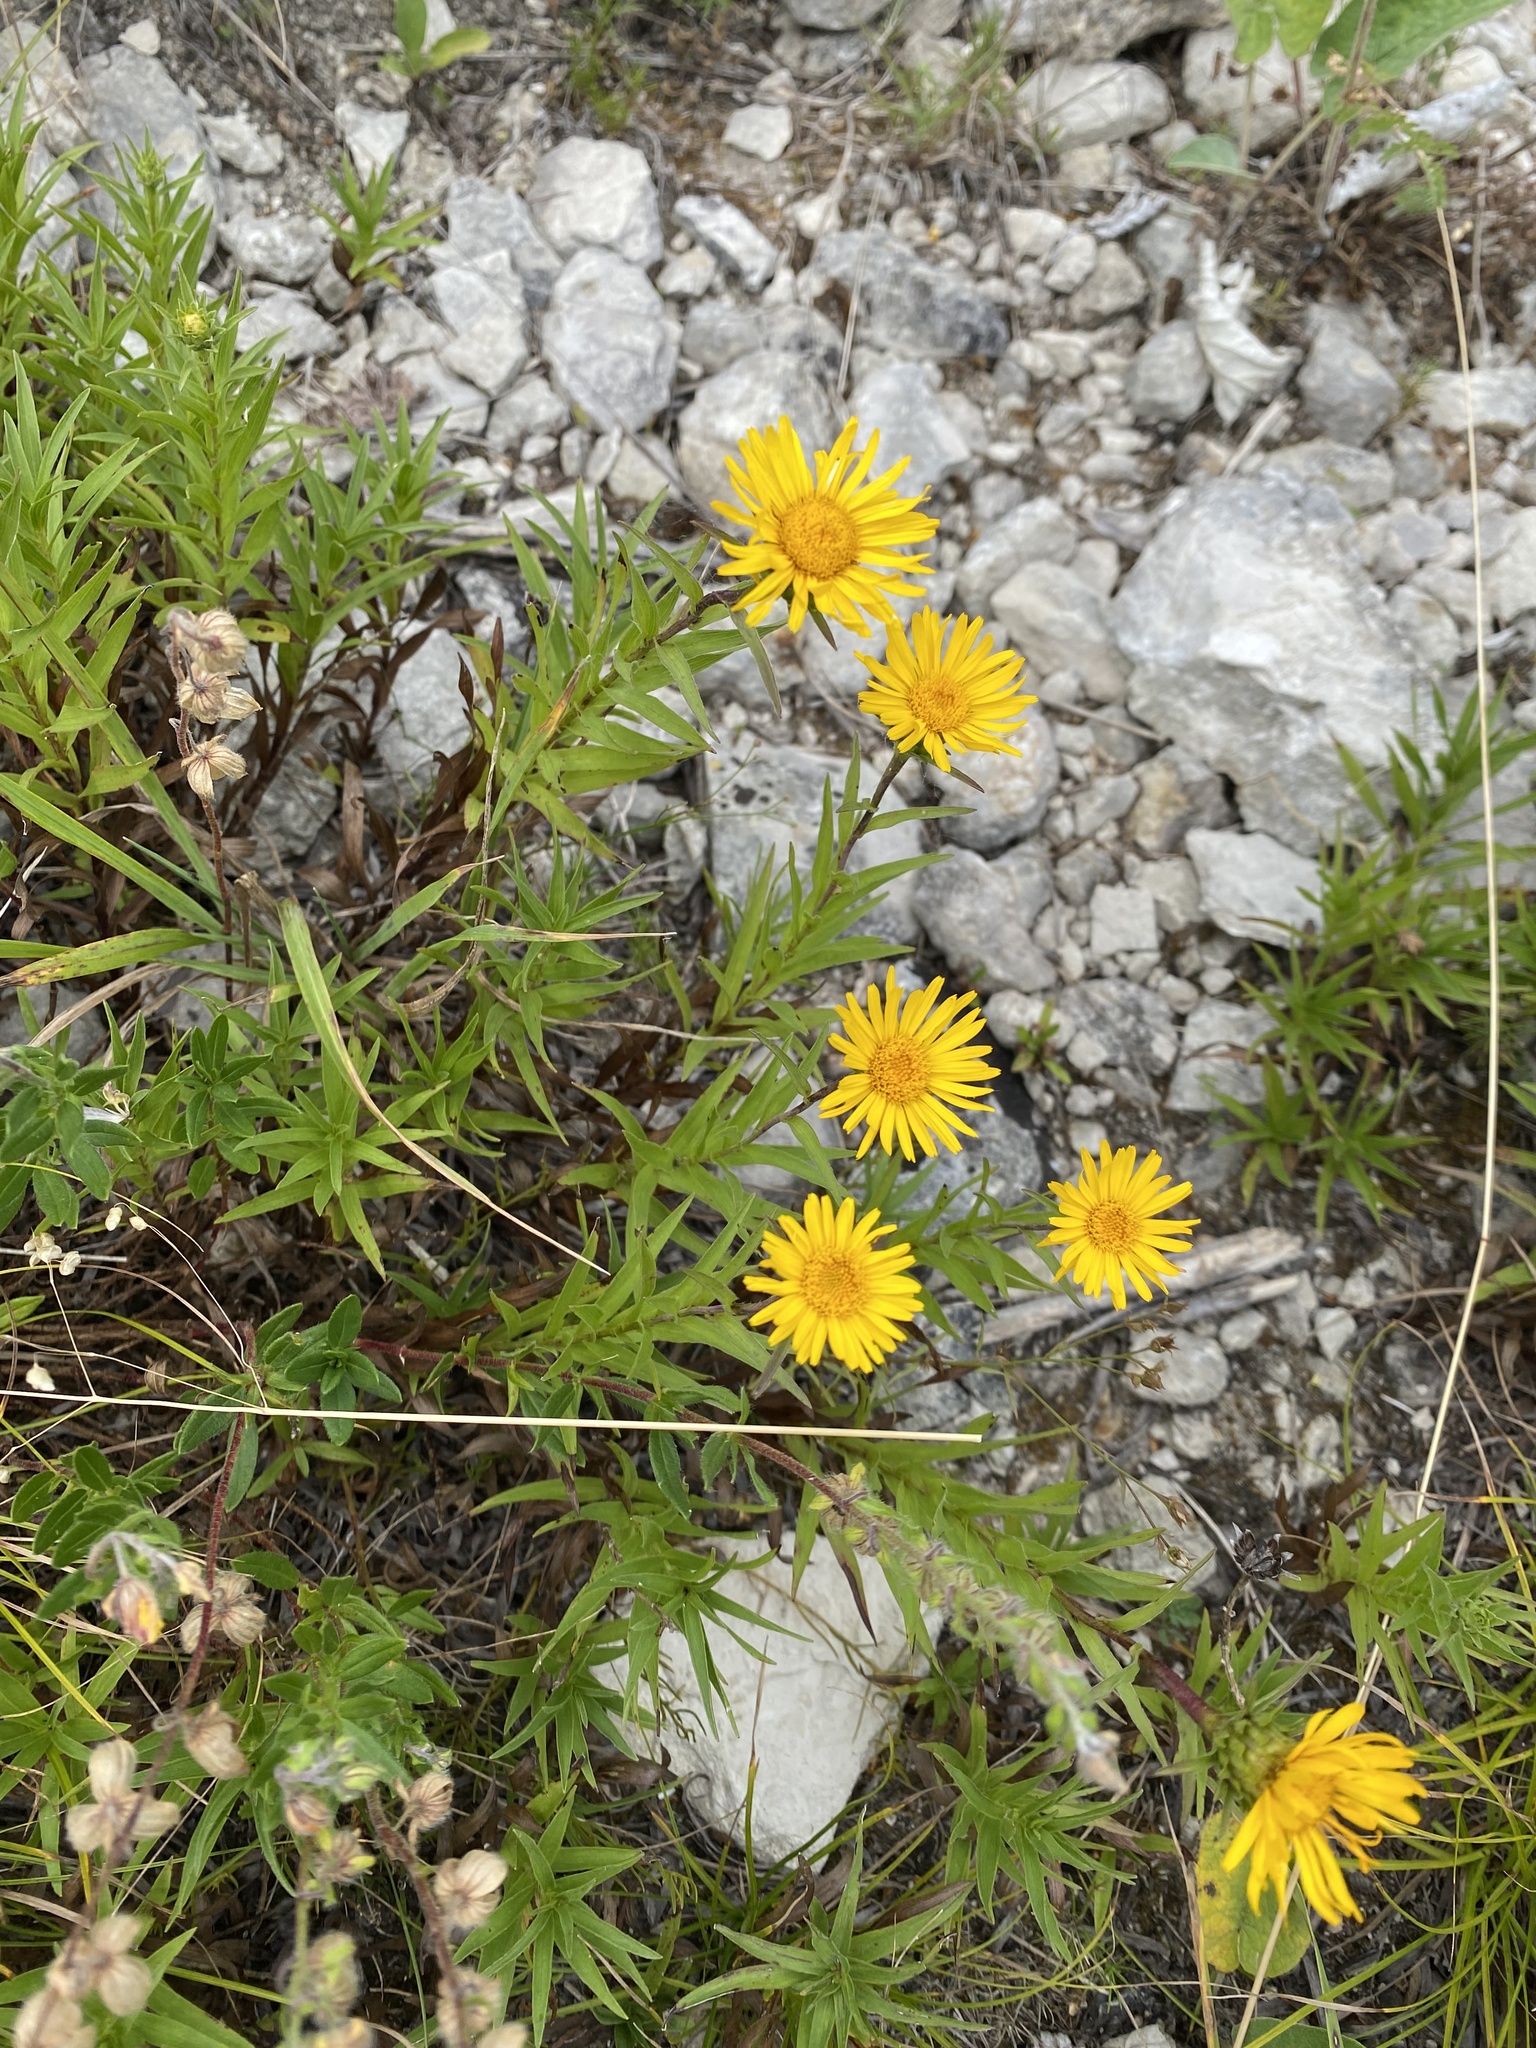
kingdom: Plantae
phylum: Tracheophyta
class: Magnoliopsida
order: Asterales
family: Asteraceae
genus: Pentanema
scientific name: Pentanema ensifolium
